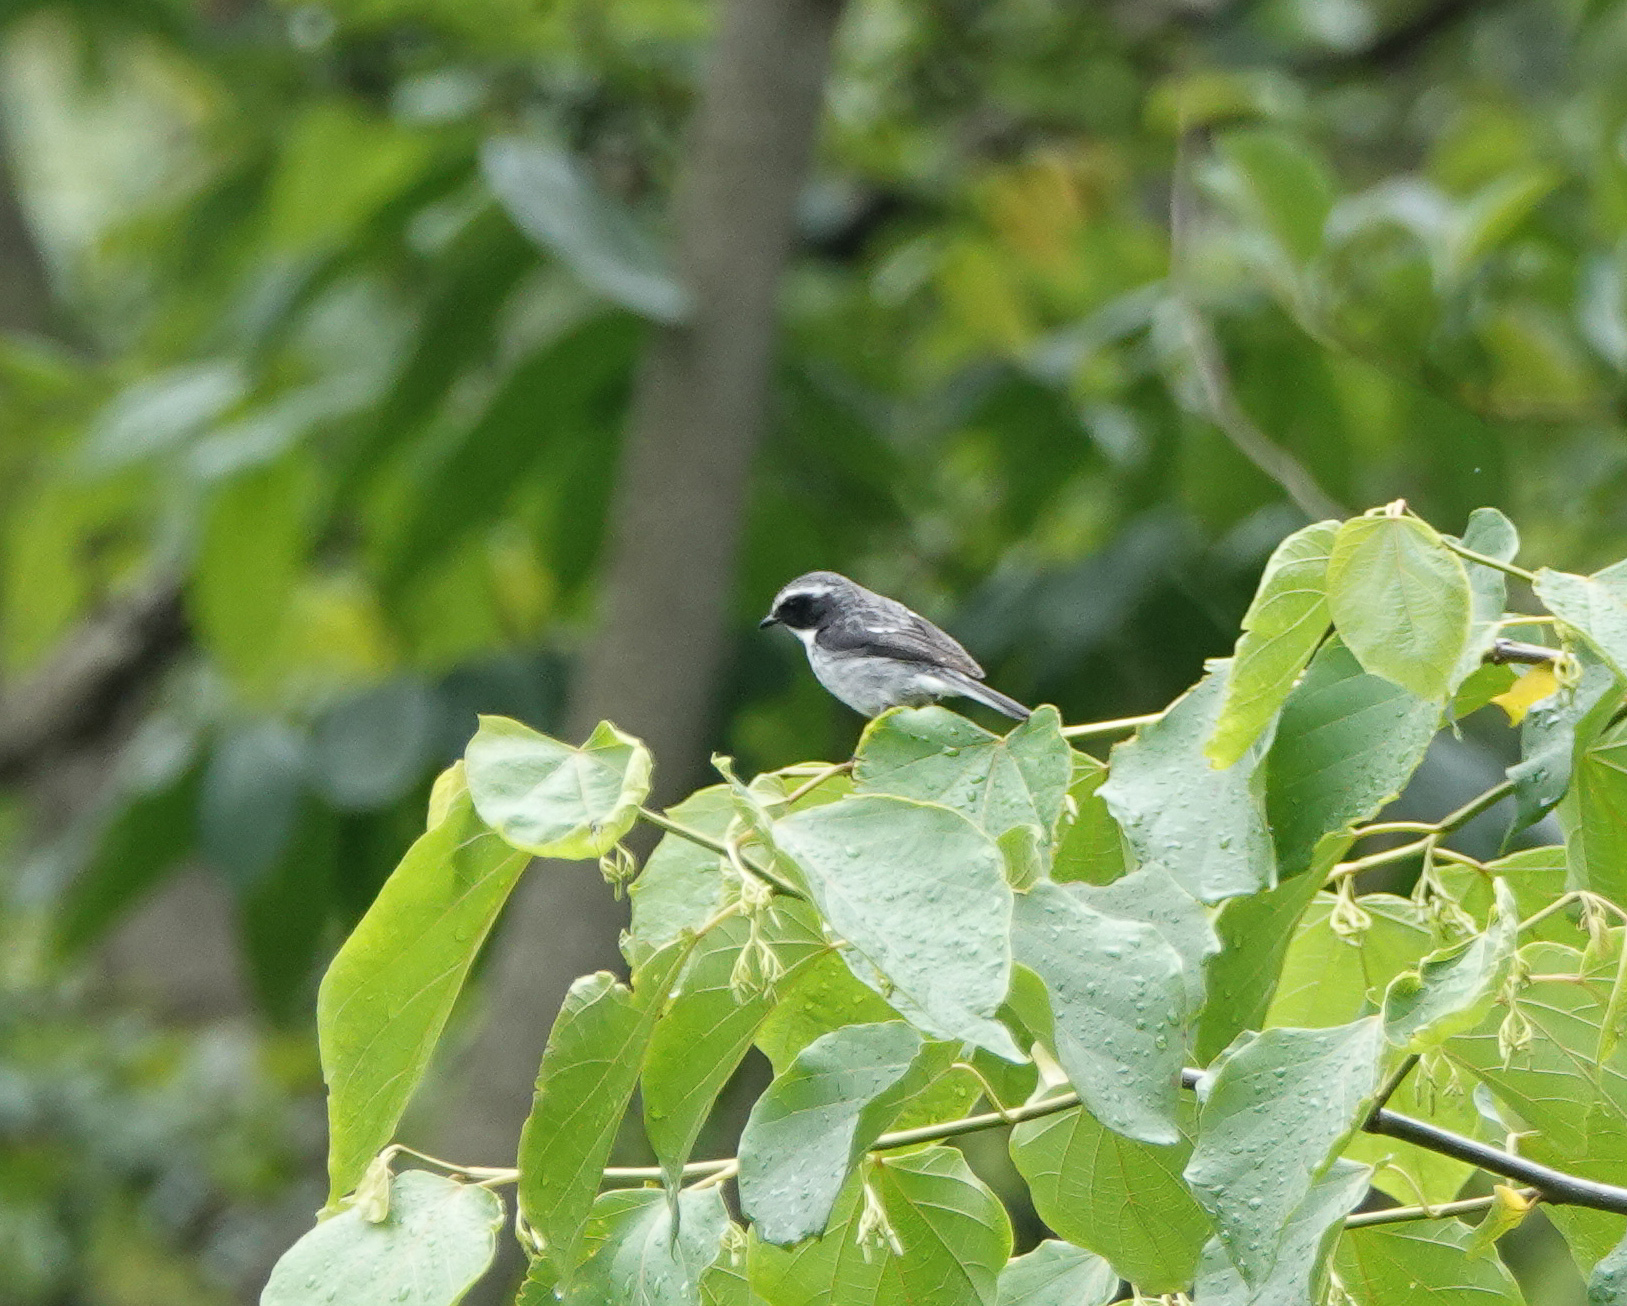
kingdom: Animalia
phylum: Chordata
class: Aves
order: Passeriformes
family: Muscicapidae
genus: Saxicola
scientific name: Saxicola ferreus
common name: Grey bush chat
